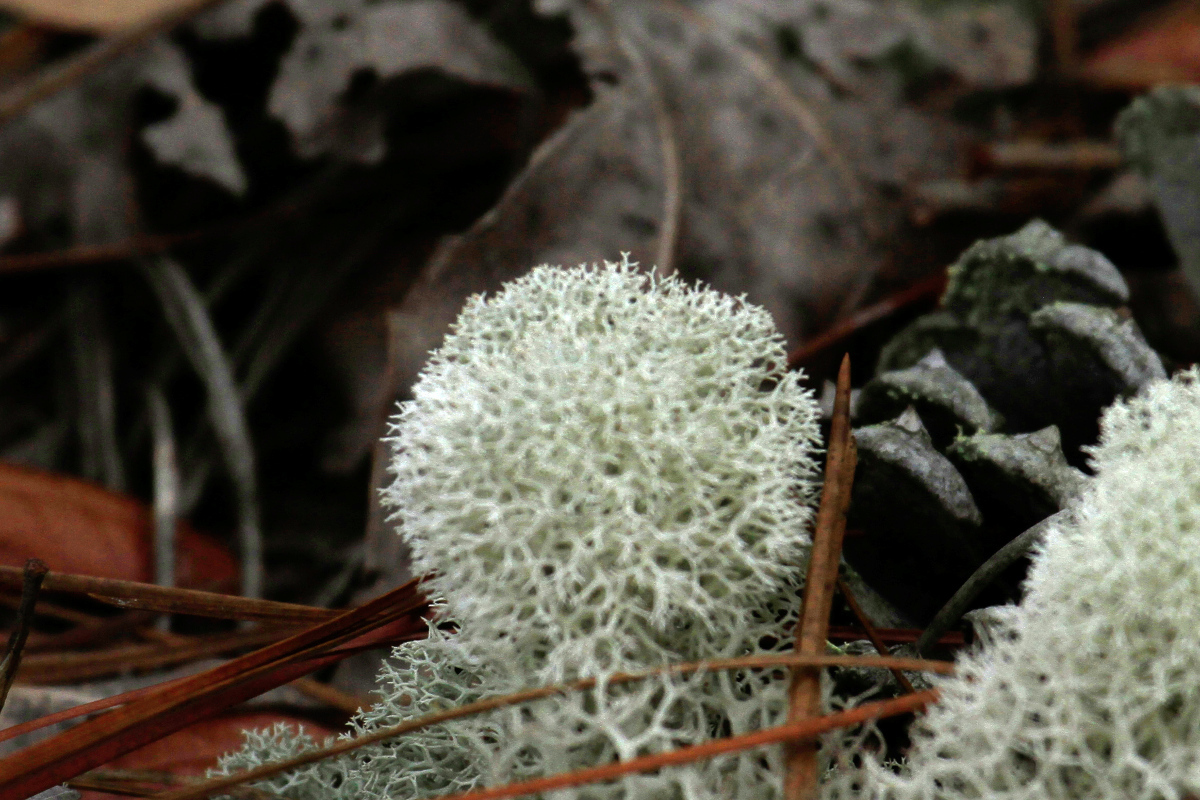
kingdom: Fungi
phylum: Ascomycota
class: Lecanoromycetes
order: Lecanorales
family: Cladoniaceae
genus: Cladonia
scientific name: Cladonia evansii
